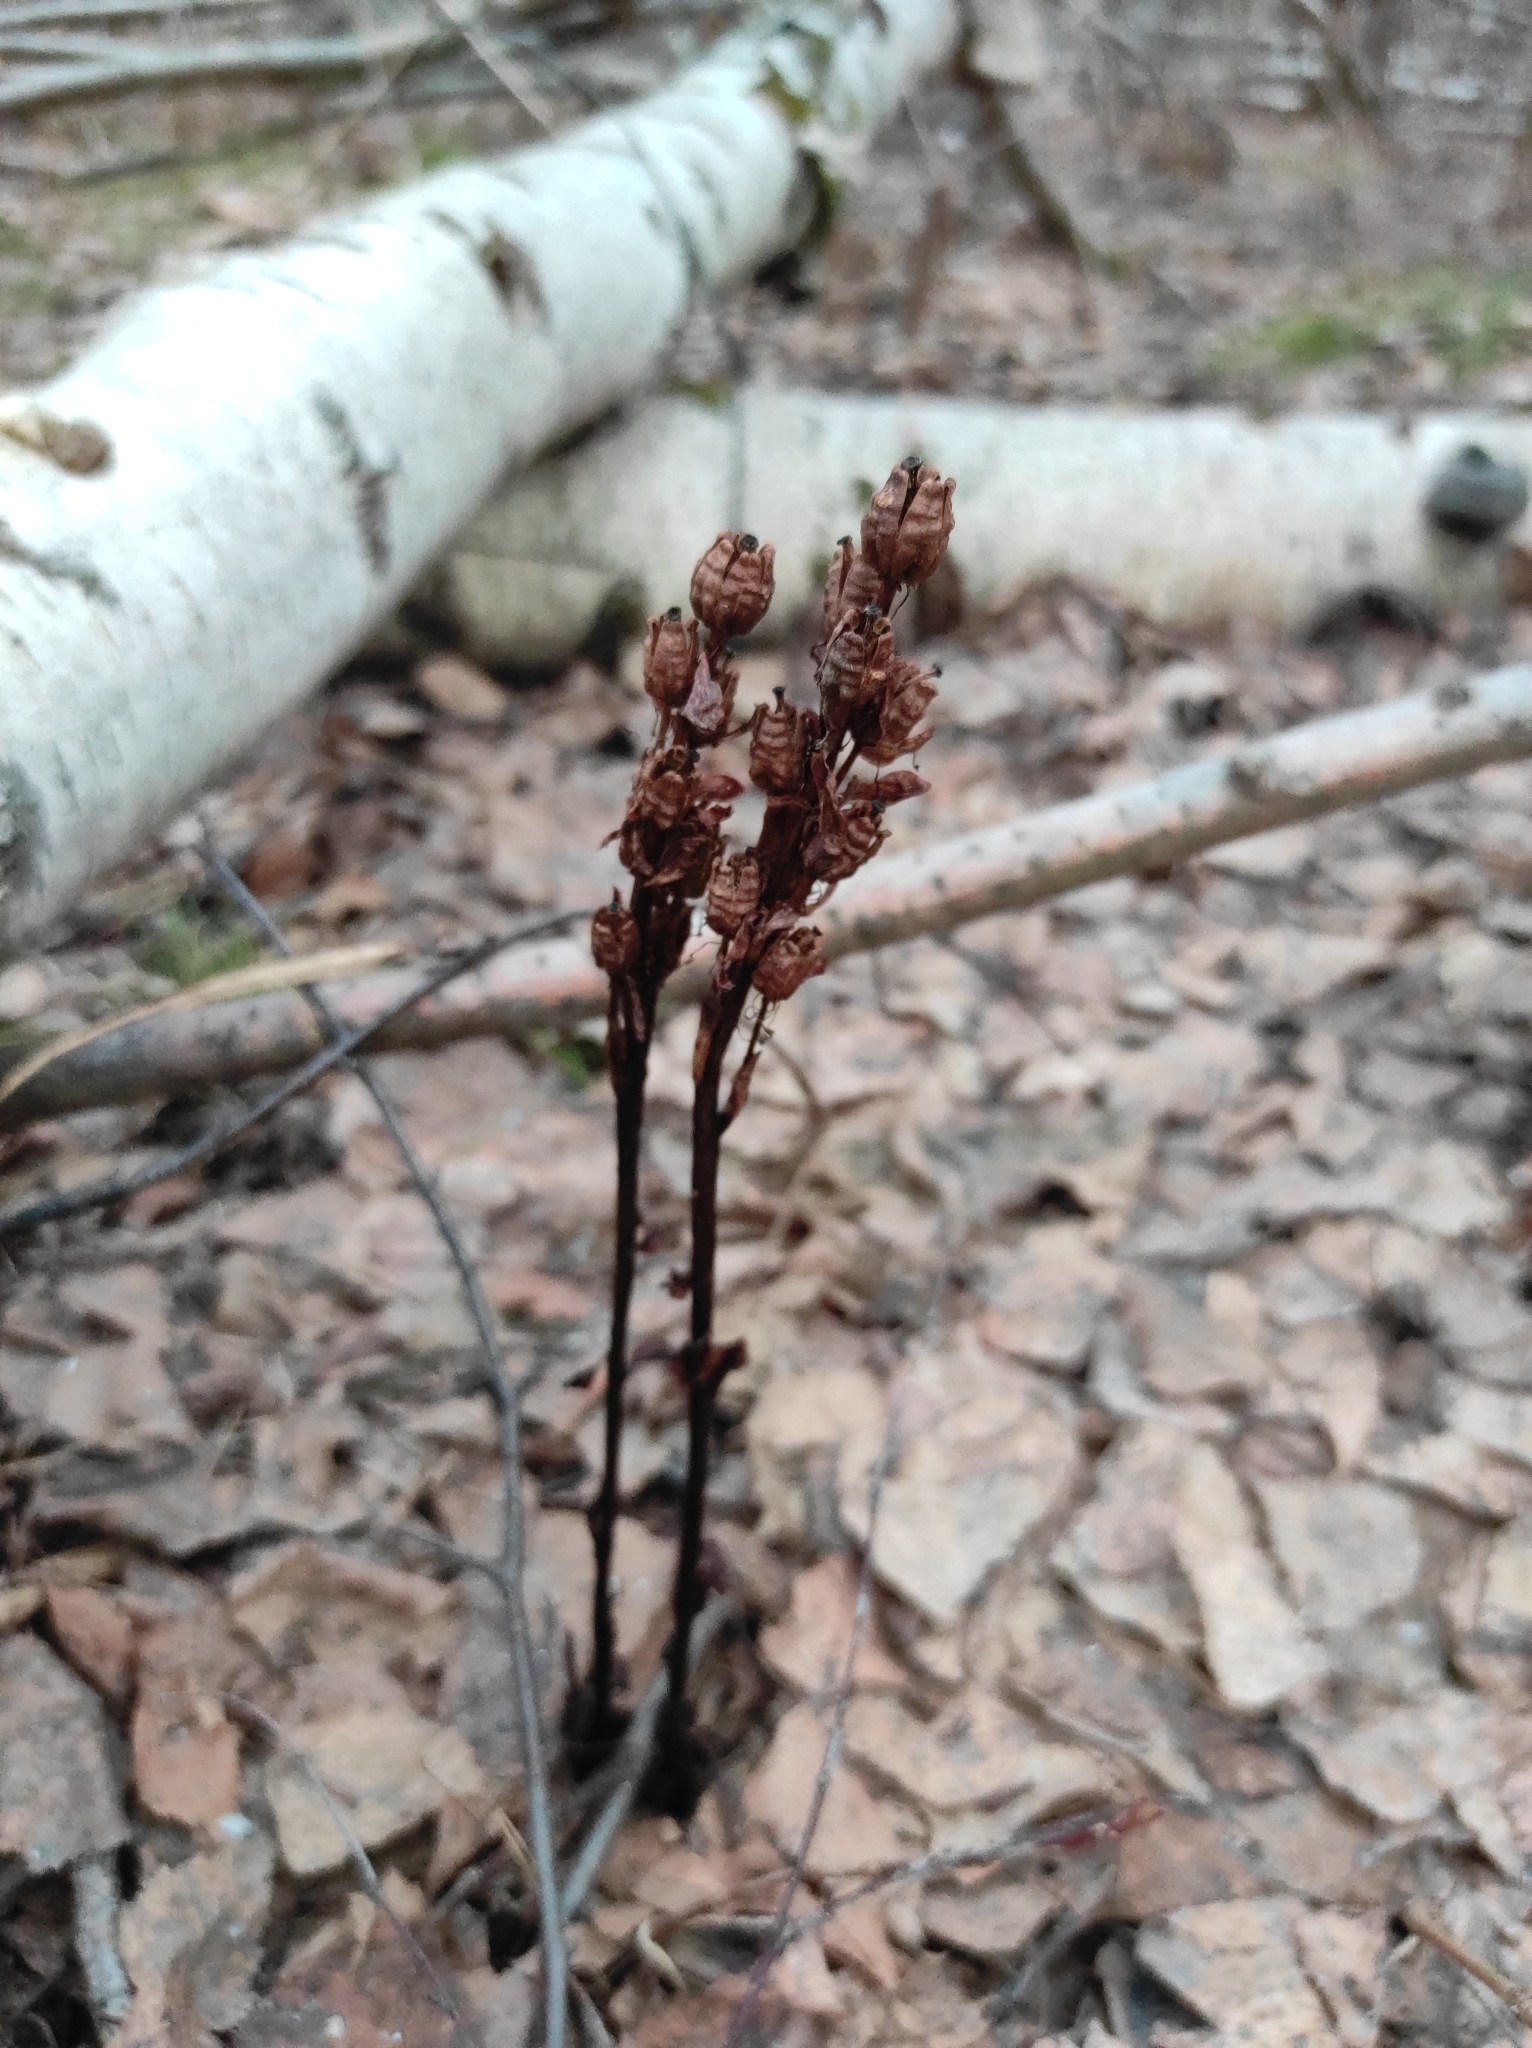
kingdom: Plantae
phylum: Tracheophyta
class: Magnoliopsida
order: Ericales
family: Ericaceae
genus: Hypopitys
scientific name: Hypopitys monotropa
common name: Yellow bird's-nest
